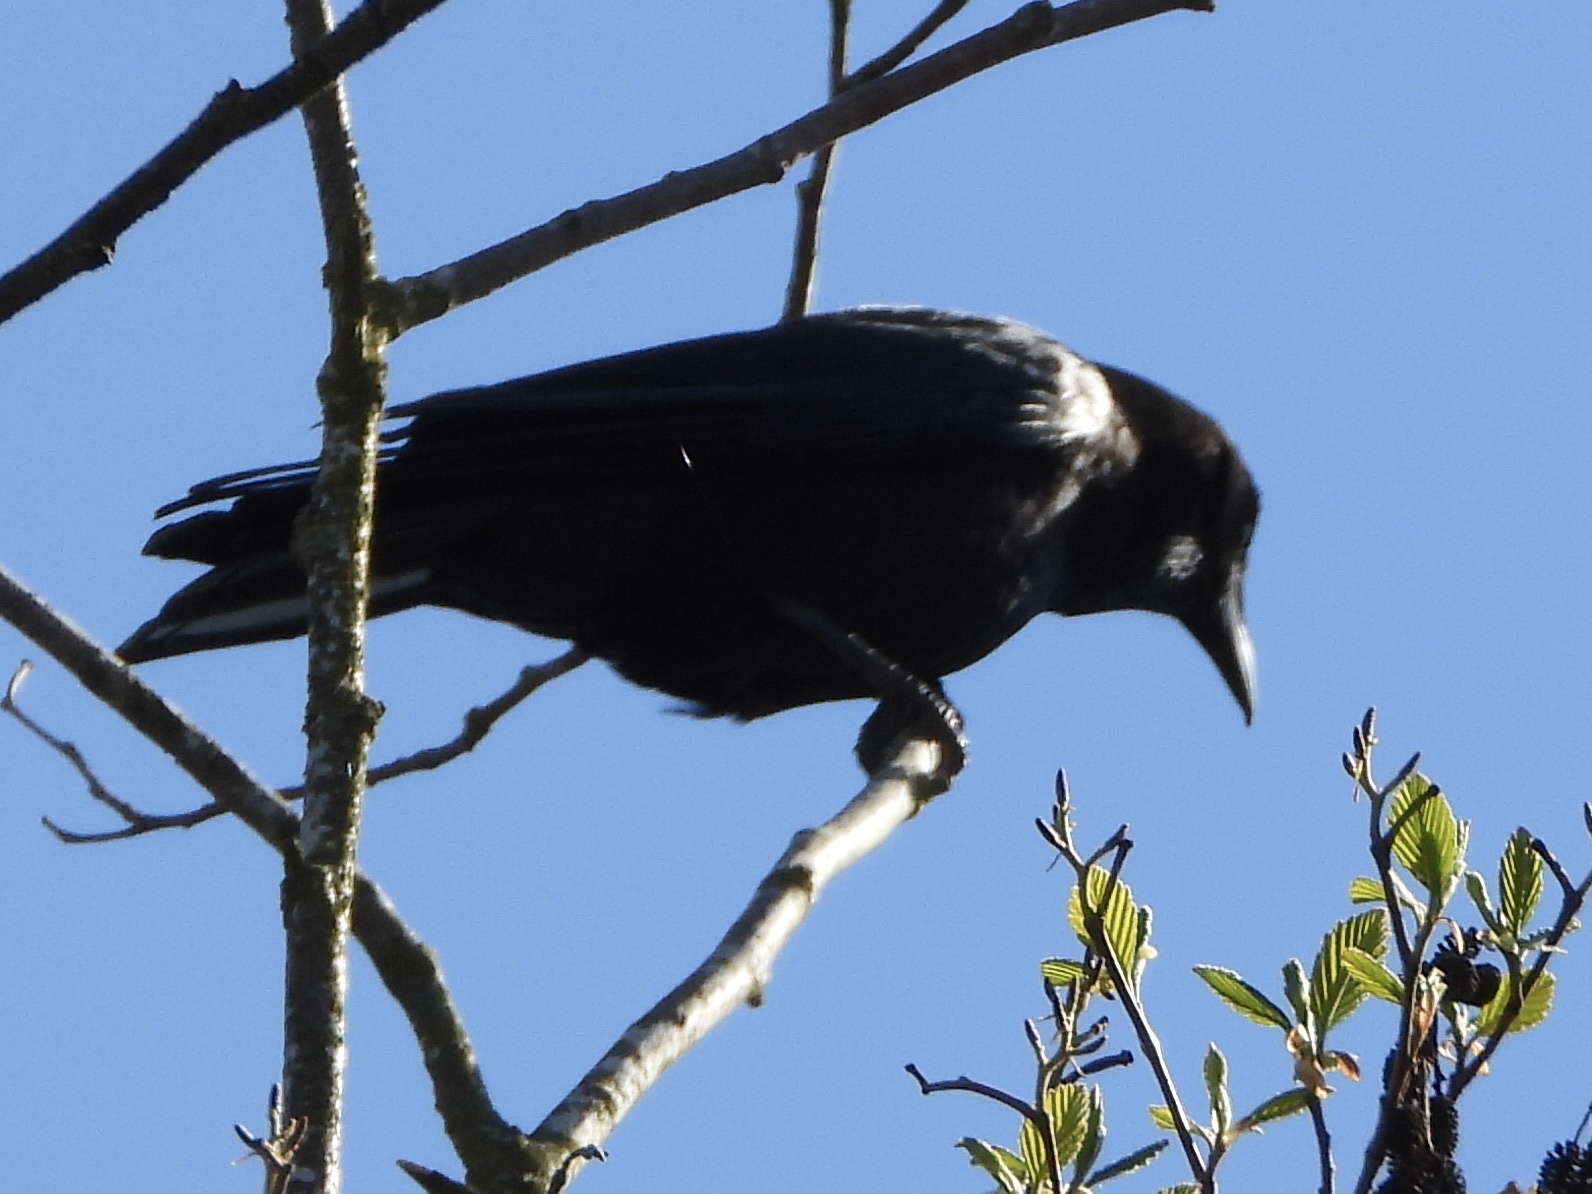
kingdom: Animalia
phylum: Chordata
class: Aves
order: Passeriformes
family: Corvidae
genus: Corvus
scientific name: Corvus brachyrhynchos
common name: American crow
